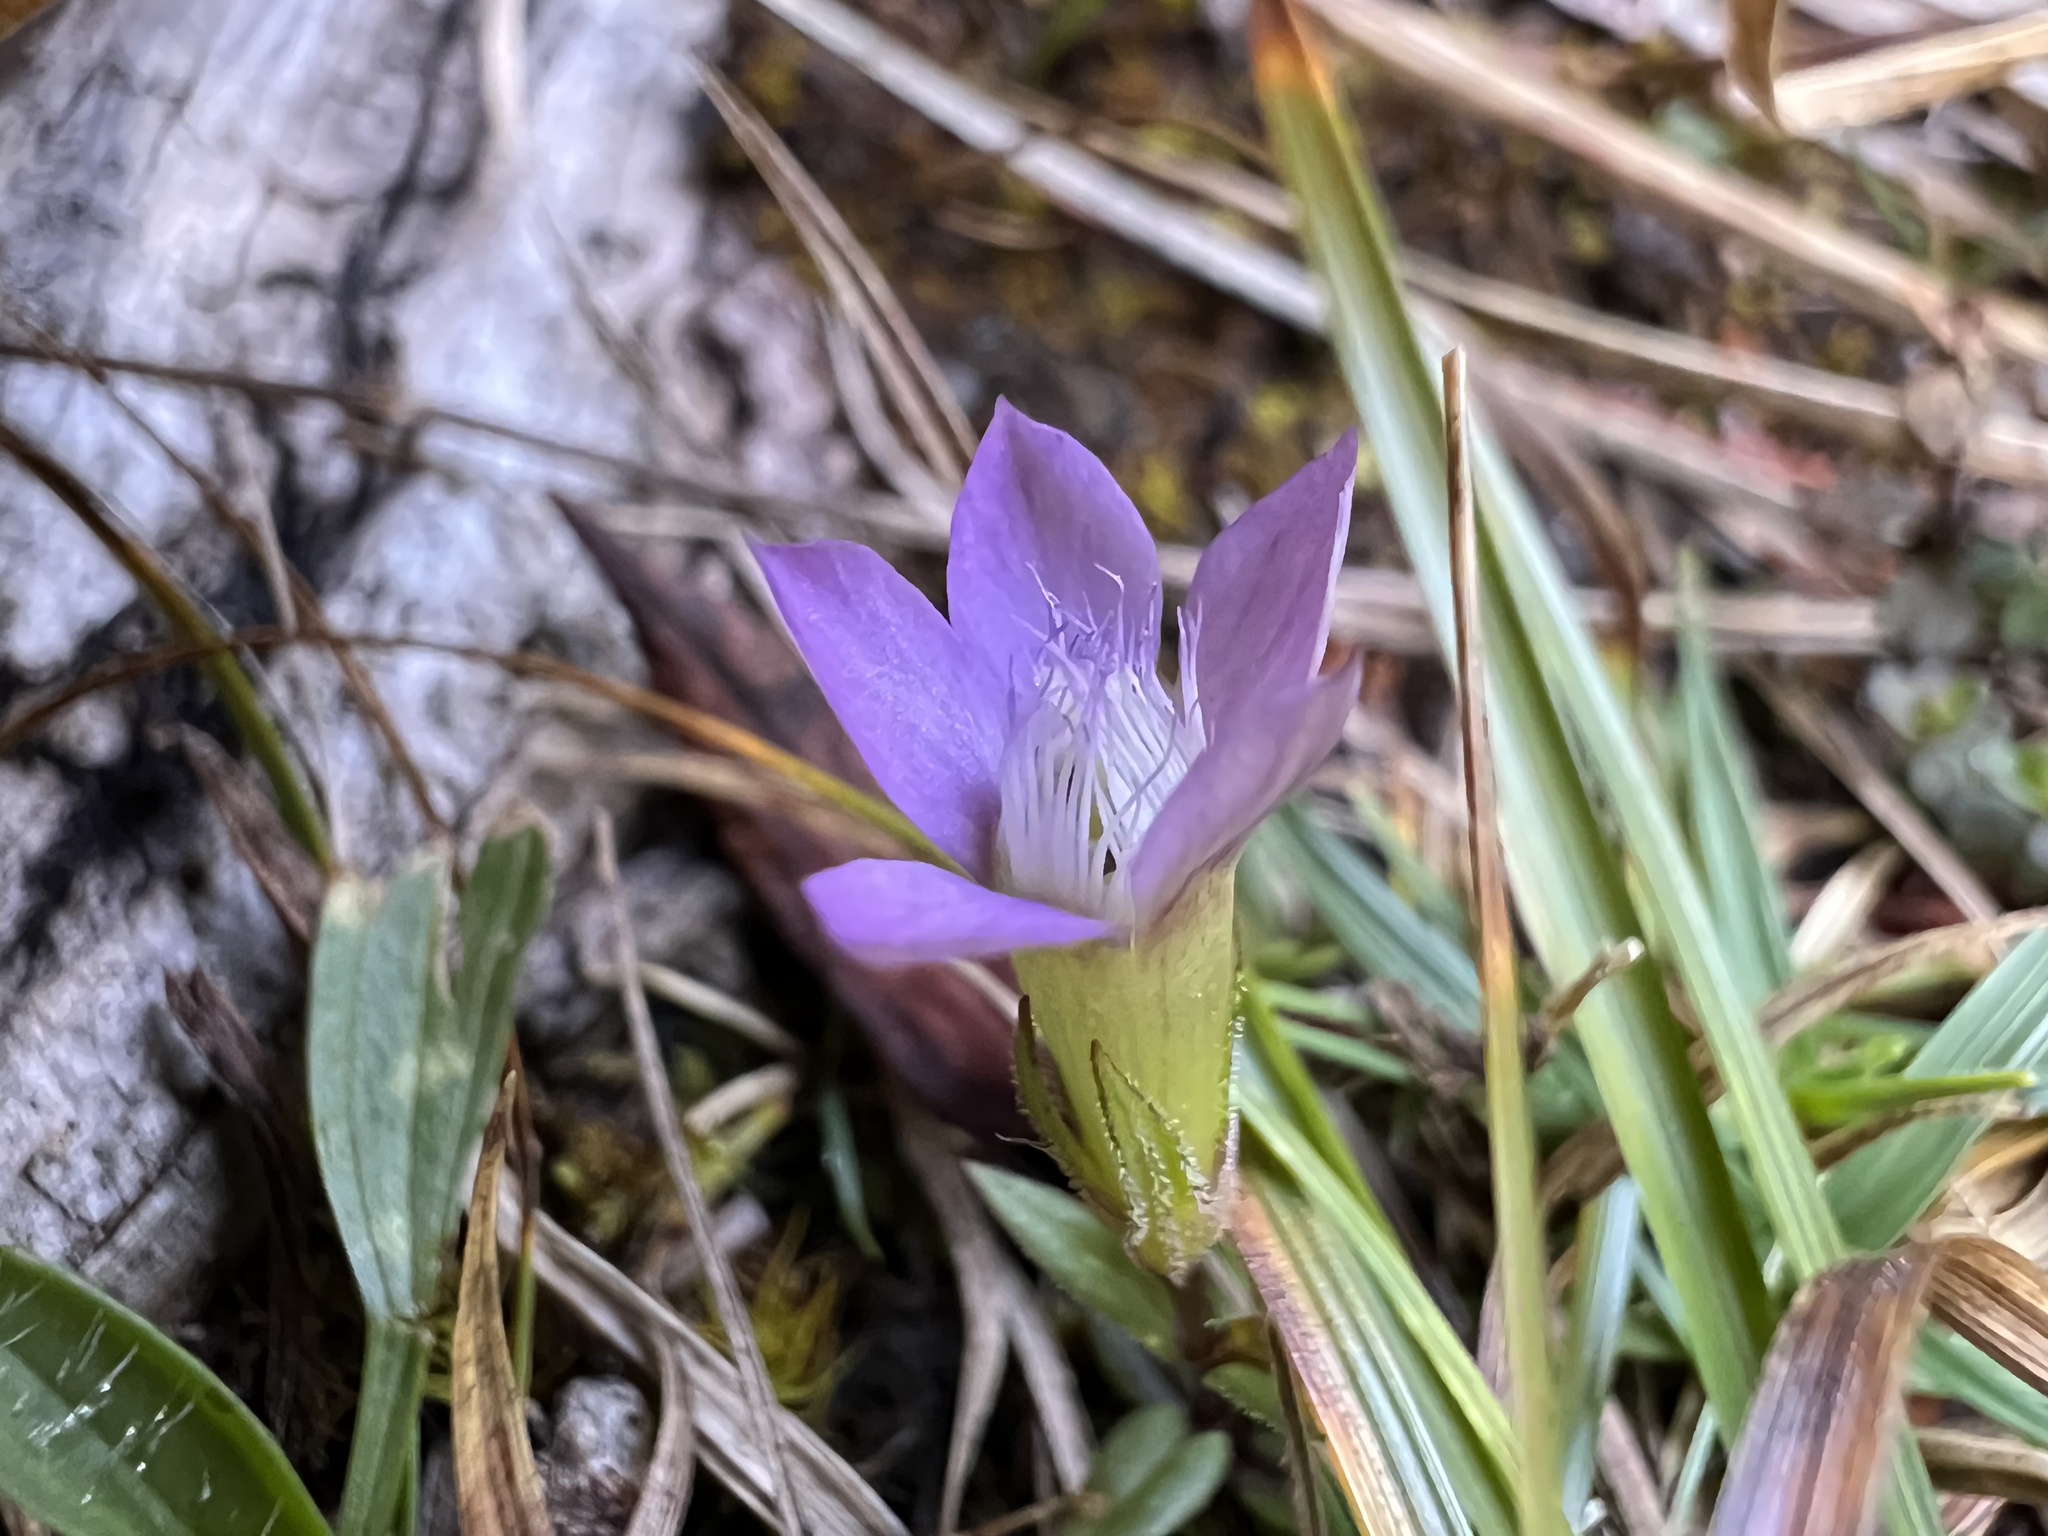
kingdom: Plantae
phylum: Tracheophyta
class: Magnoliopsida
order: Gentianales
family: Gentianaceae
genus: Gentianella
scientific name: Gentianella obtusifolia
